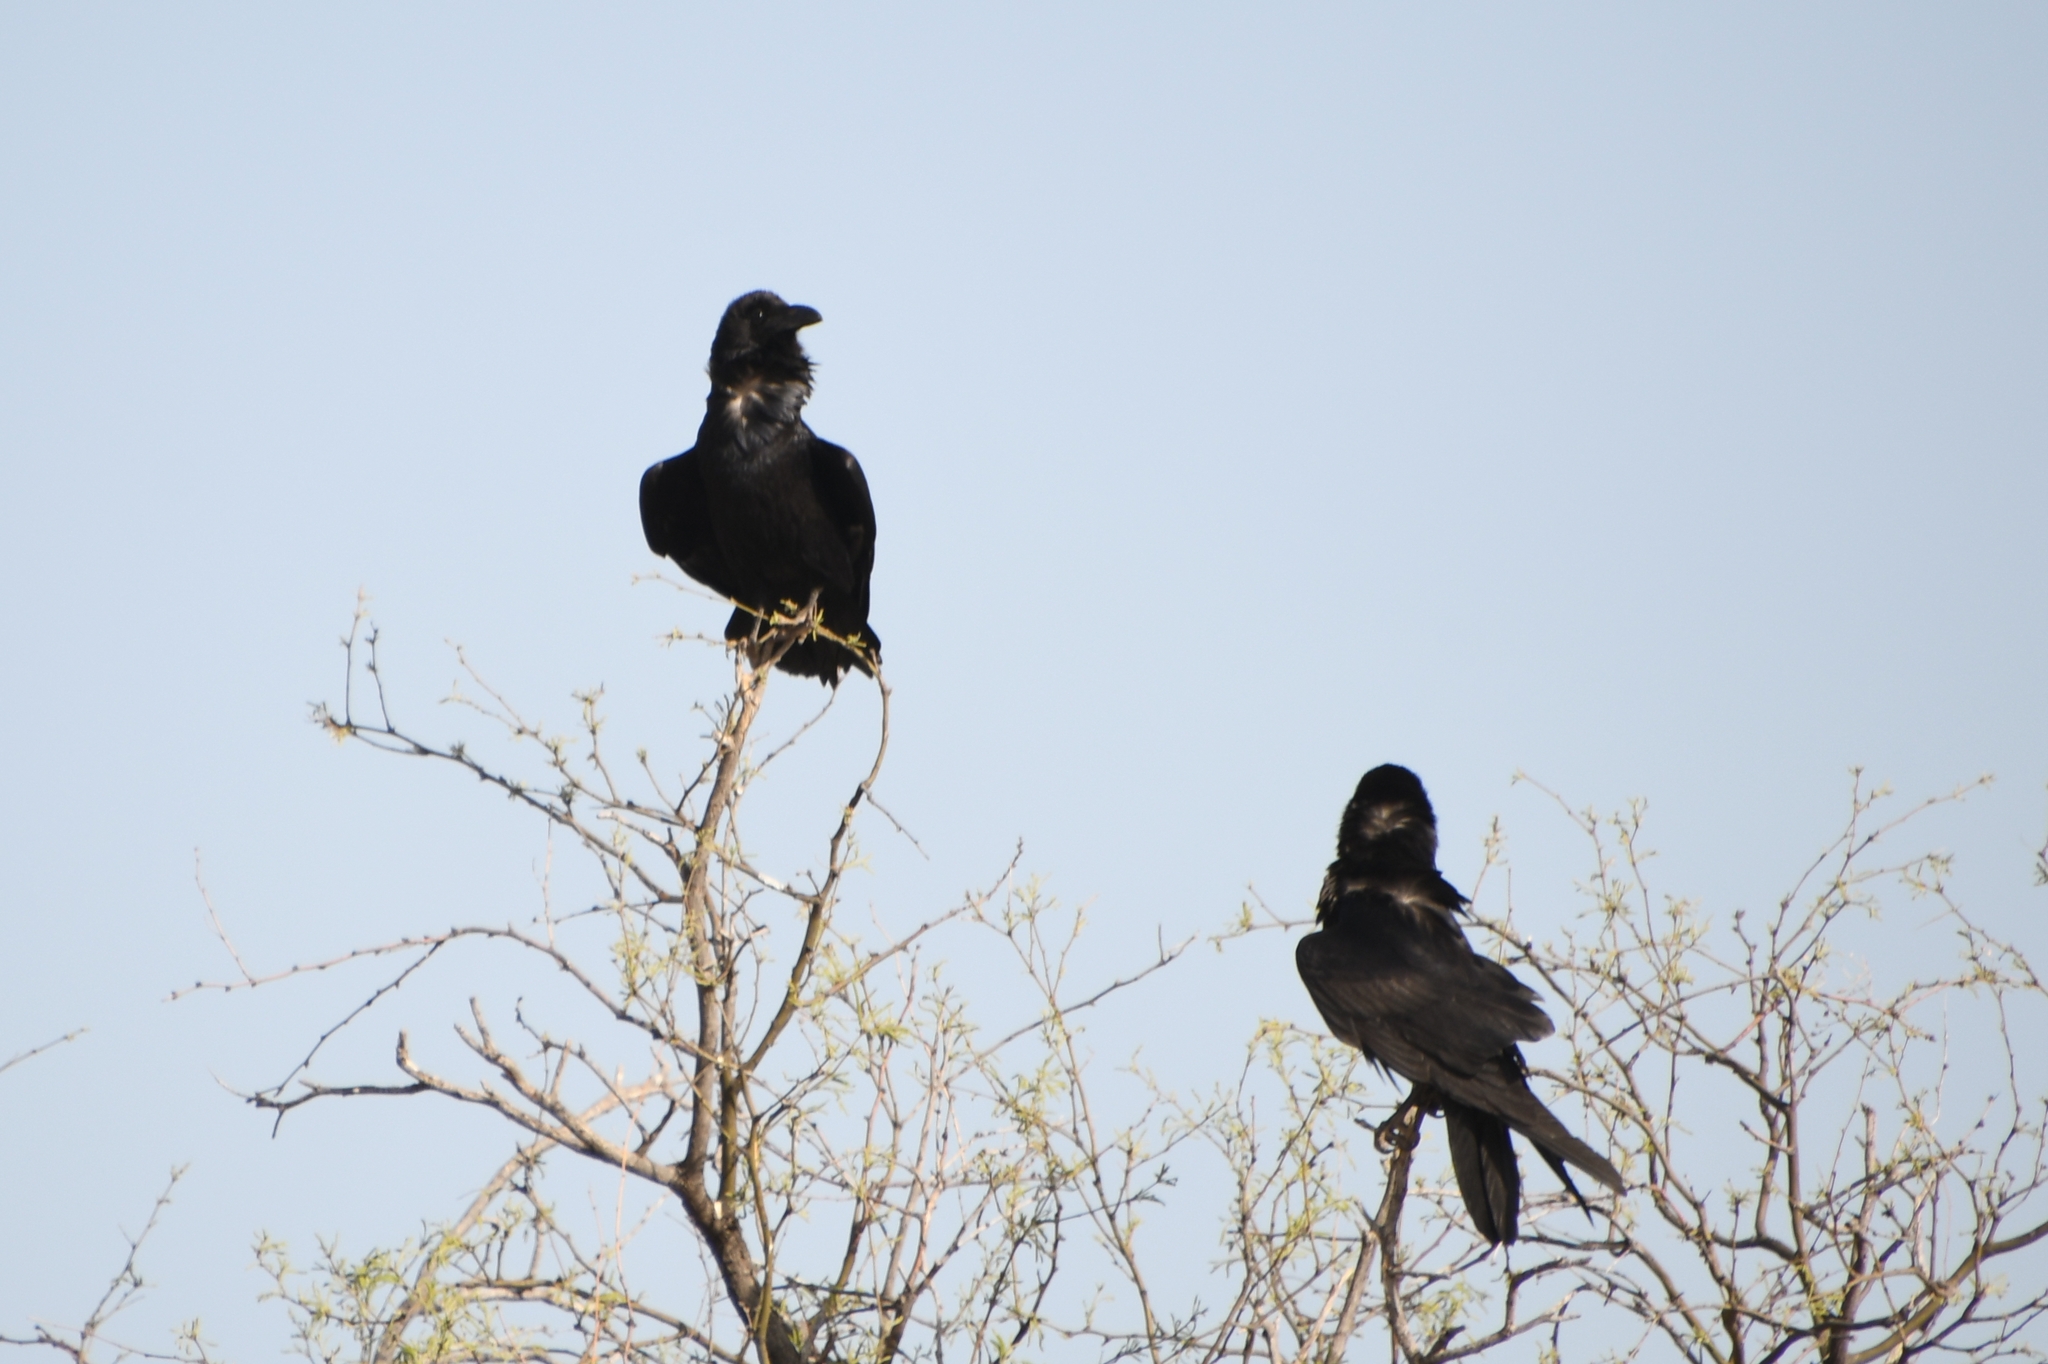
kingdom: Animalia
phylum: Chordata
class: Aves
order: Passeriformes
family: Corvidae
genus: Corvus
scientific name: Corvus cryptoleucus
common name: Chihuahuan raven
